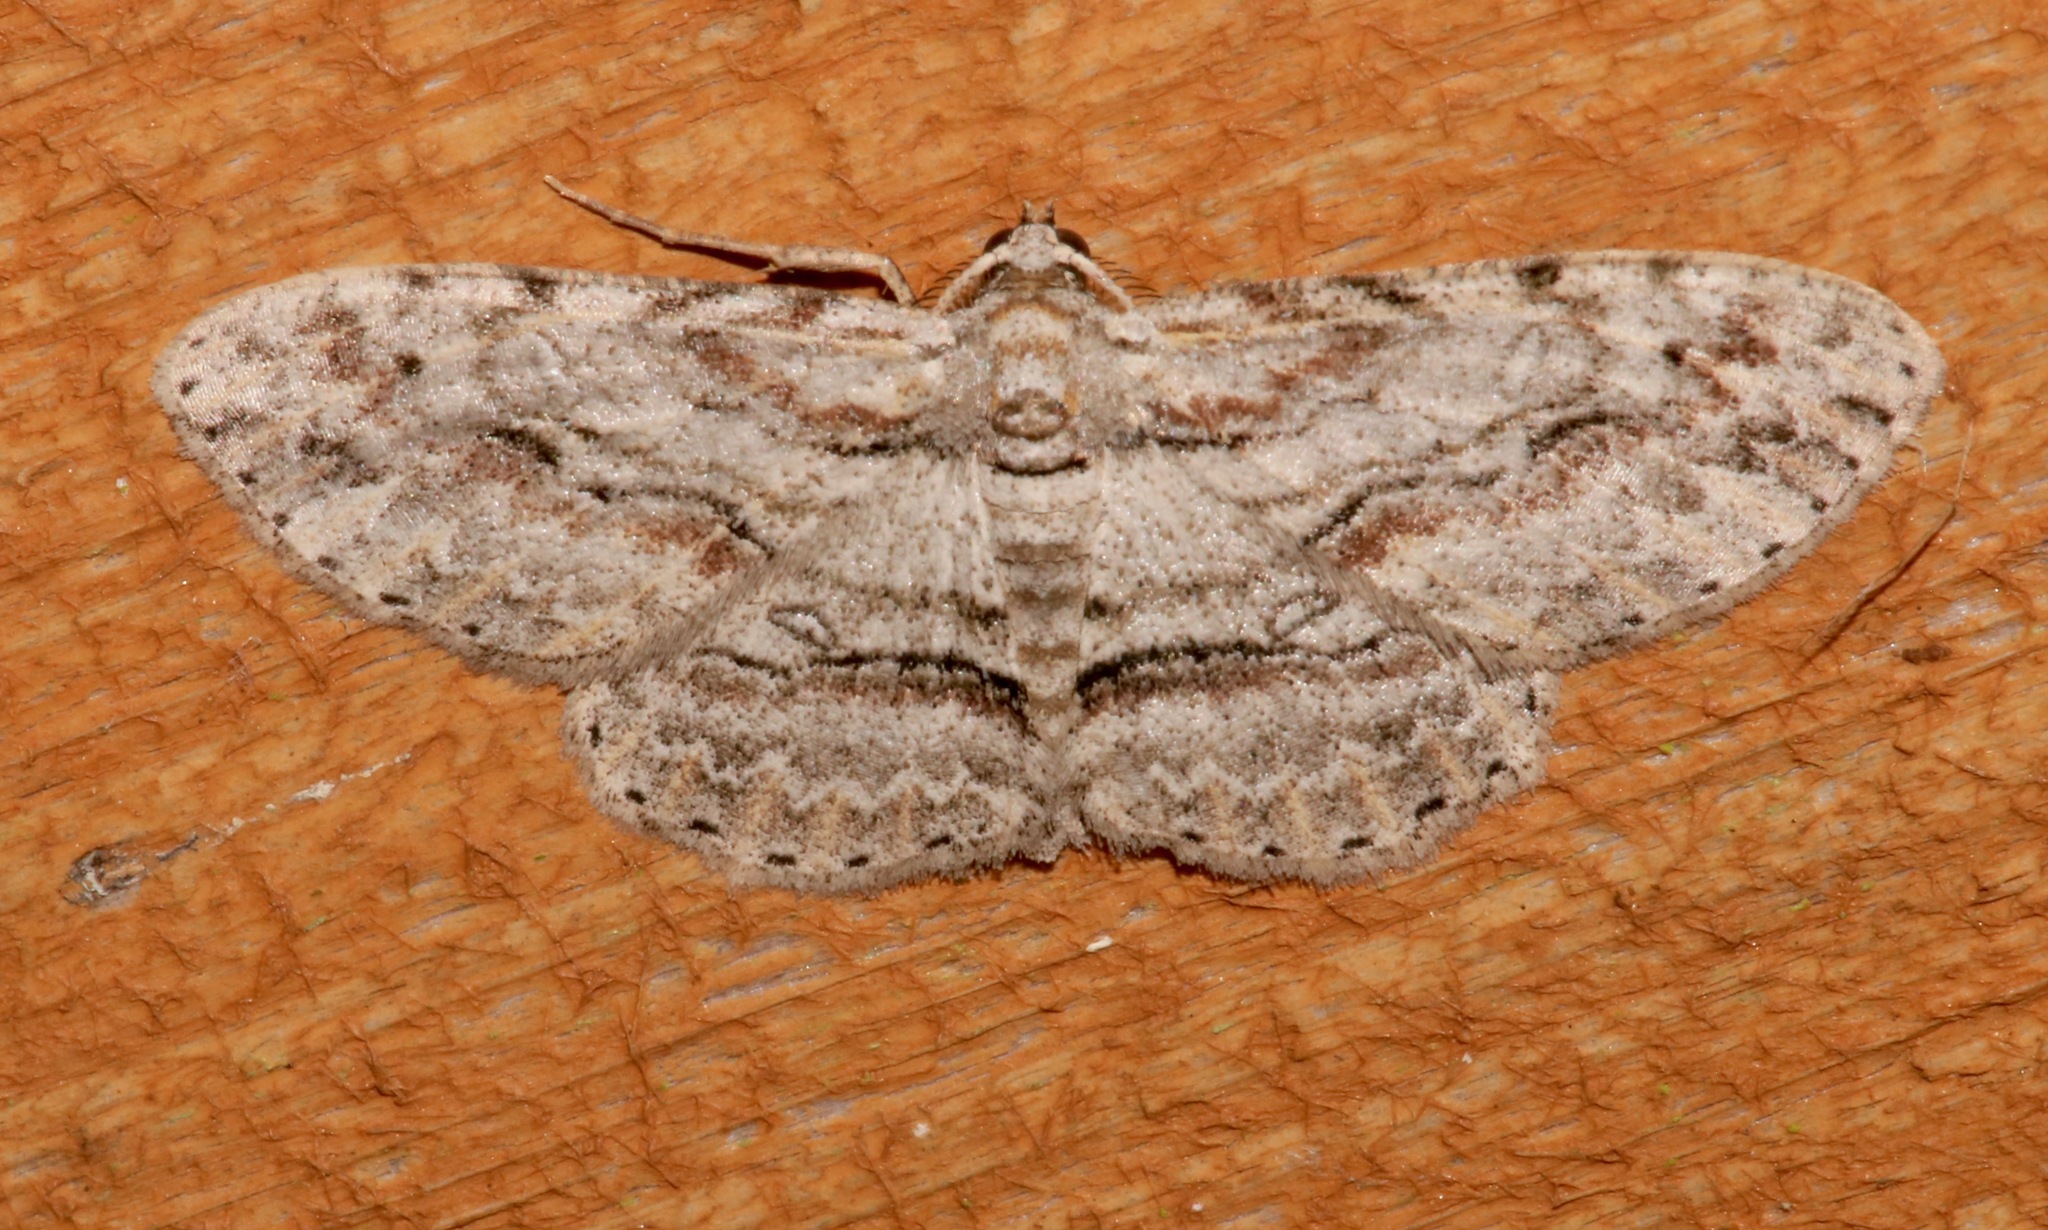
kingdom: Animalia
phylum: Arthropoda
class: Insecta
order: Lepidoptera
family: Geometridae
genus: Iridopsis
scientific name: Iridopsis defectaria
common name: Brown-shaded gray
